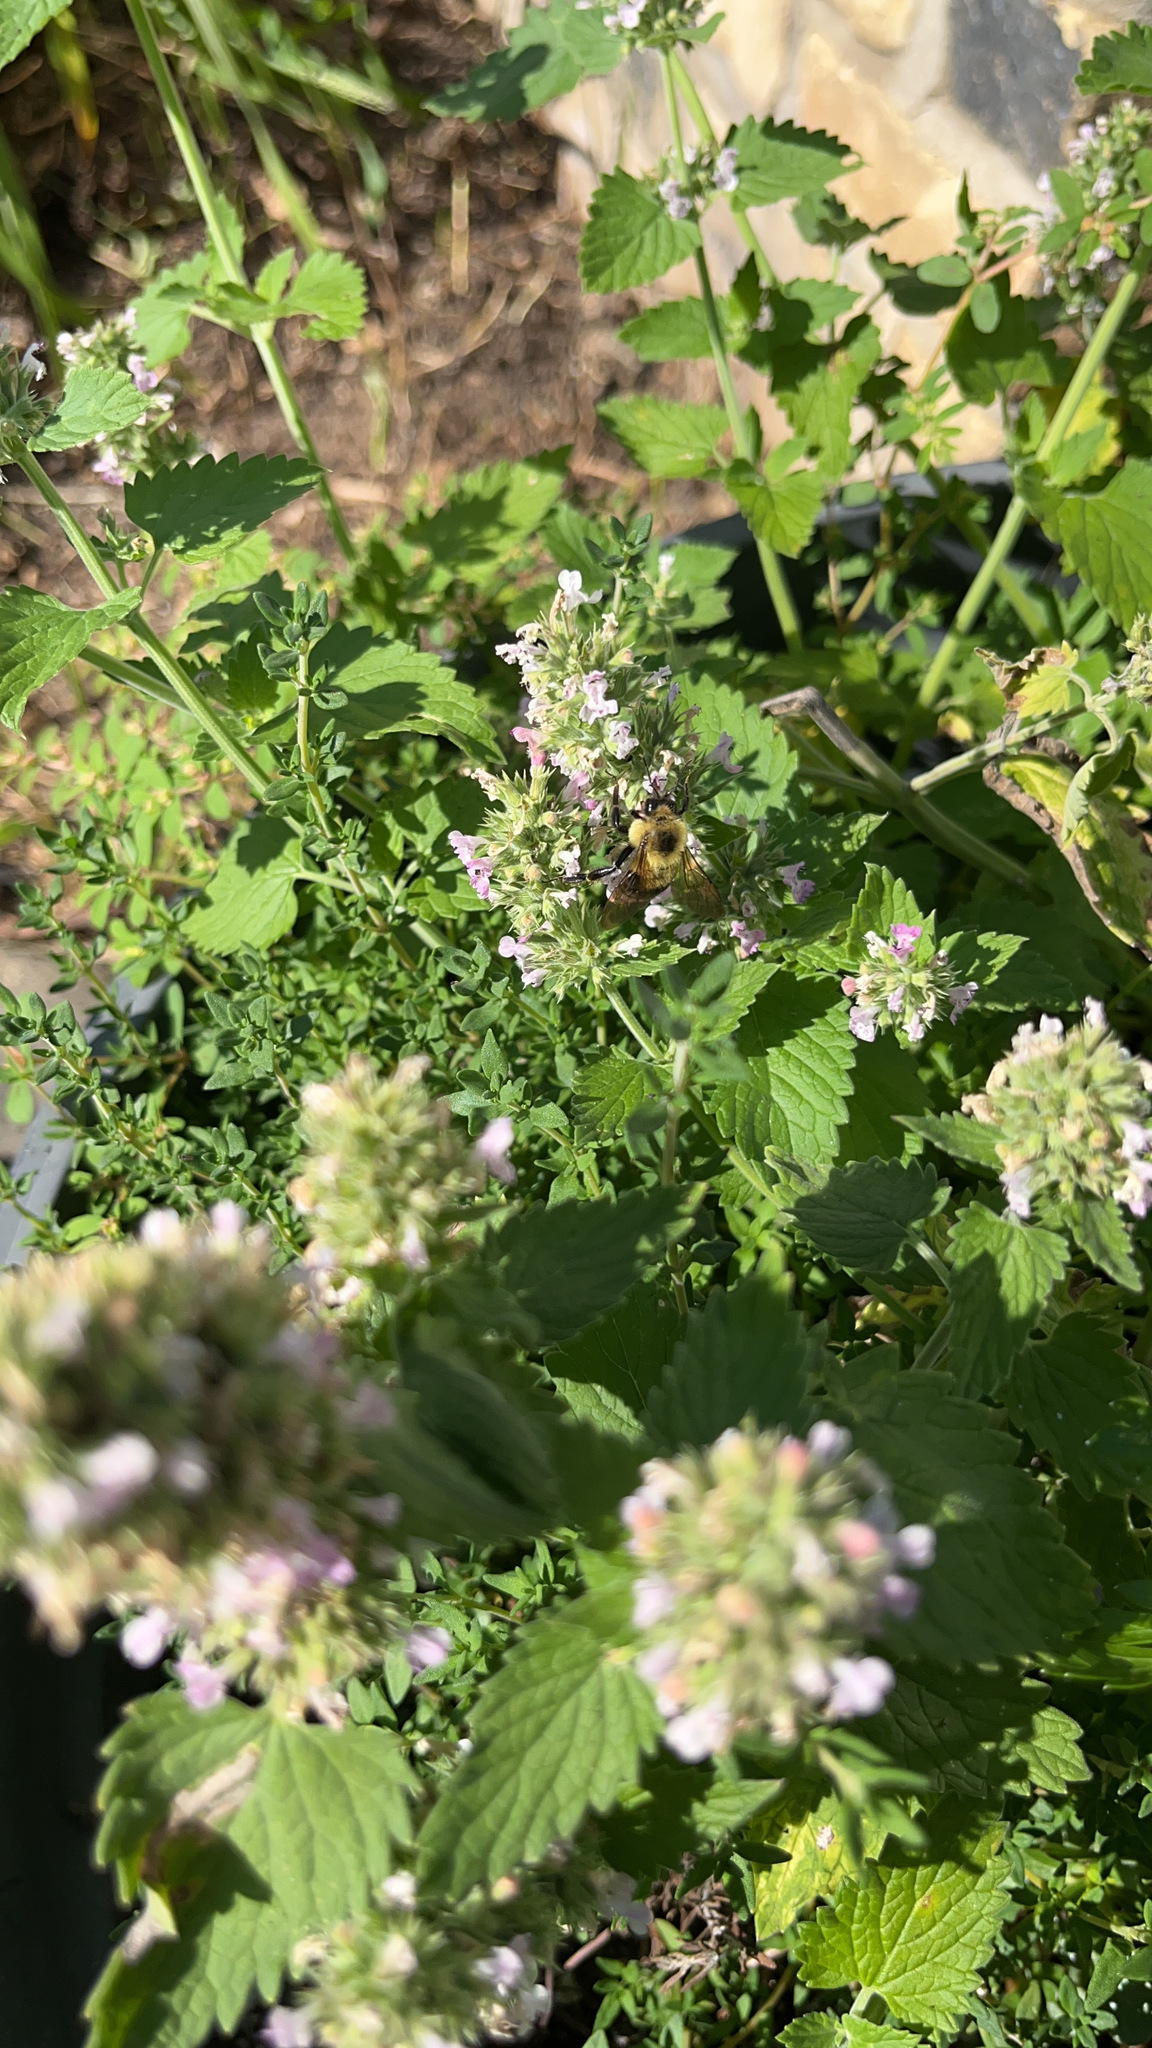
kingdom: Animalia
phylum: Arthropoda
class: Insecta
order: Hymenoptera
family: Apidae
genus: Bombus
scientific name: Bombus bimaculatus
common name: Two-spotted bumble bee
